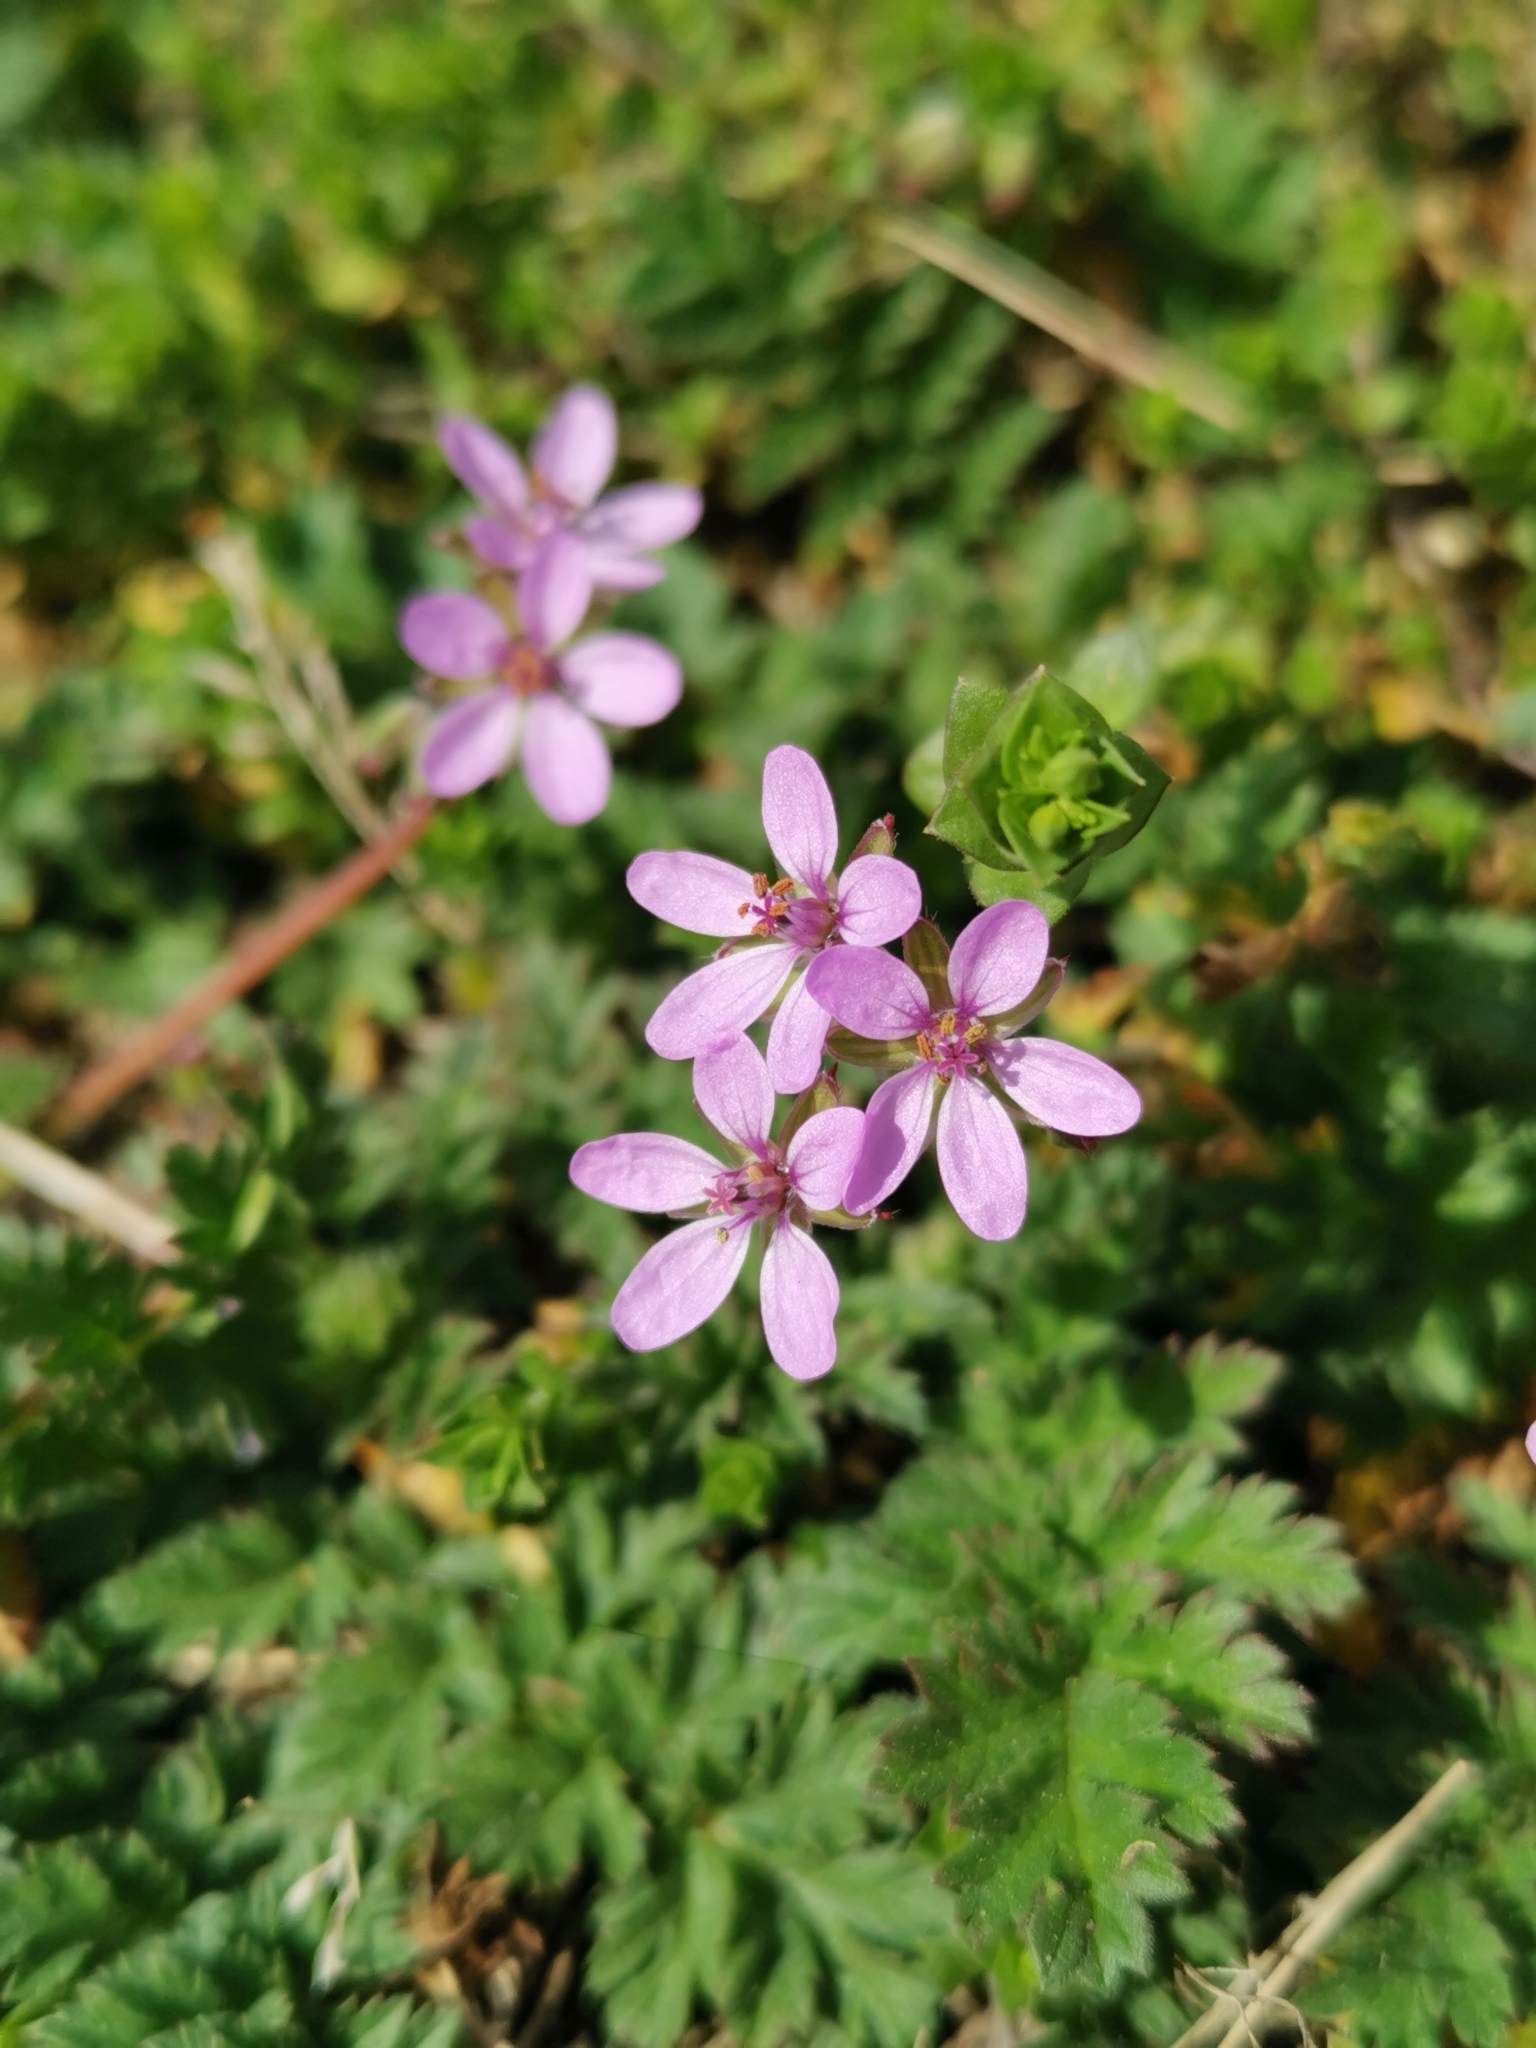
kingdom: Plantae
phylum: Tracheophyta
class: Magnoliopsida
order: Geraniales
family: Geraniaceae
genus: Erodium
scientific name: Erodium cicutarium
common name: Common stork's-bill
